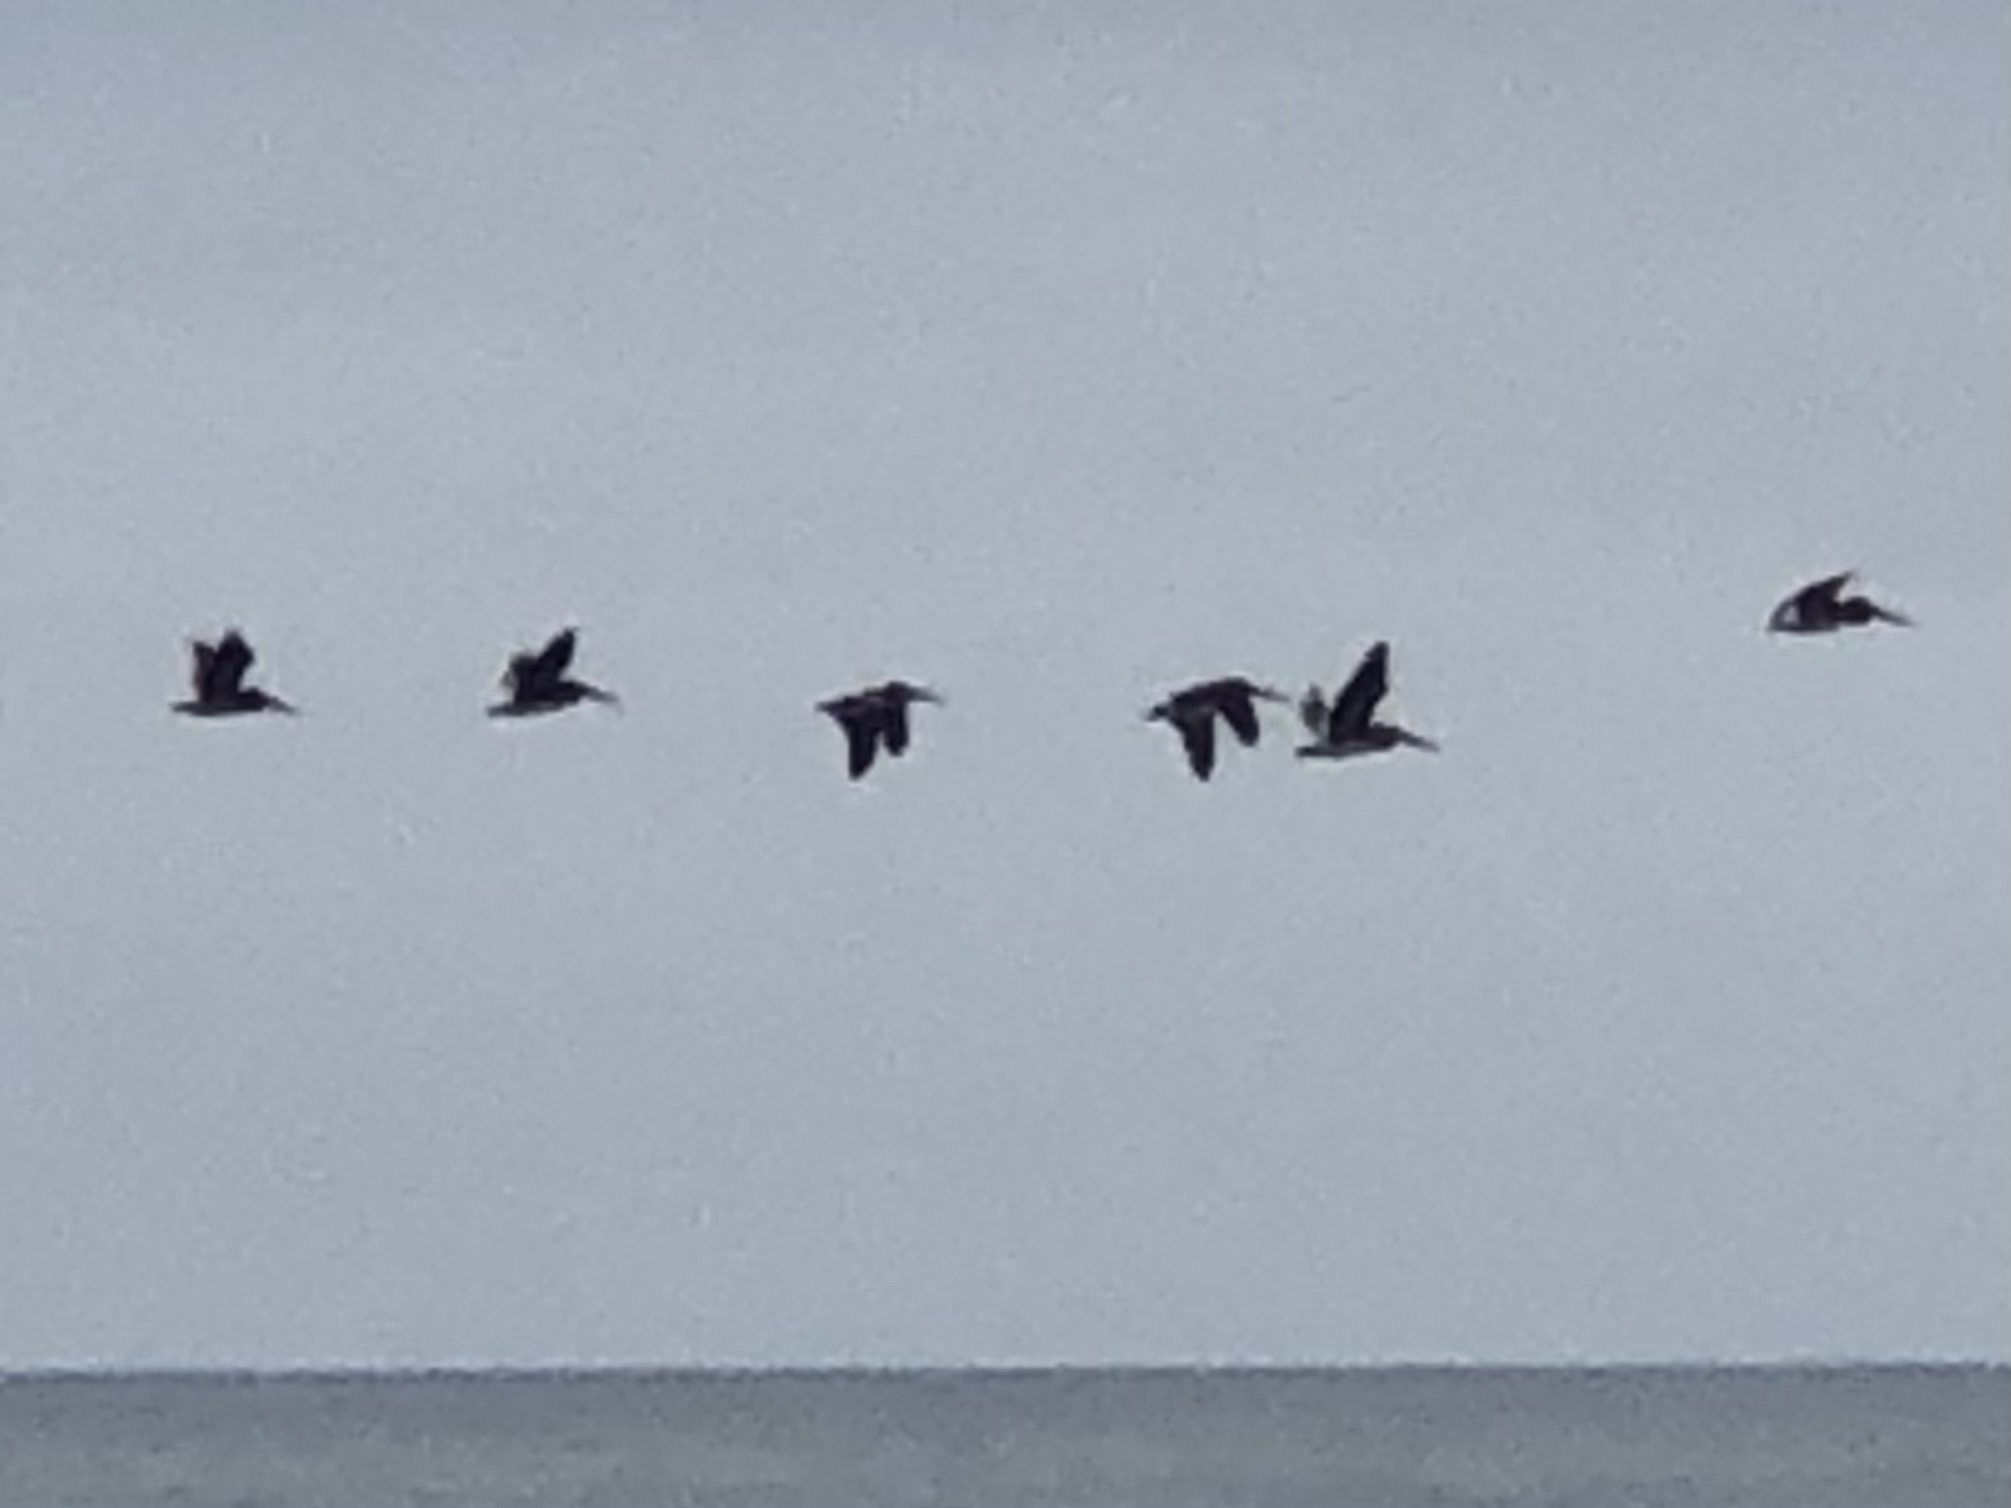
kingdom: Animalia
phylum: Chordata
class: Aves
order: Pelecaniformes
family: Pelecanidae
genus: Pelecanus
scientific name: Pelecanus occidentalis
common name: Brown pelican
